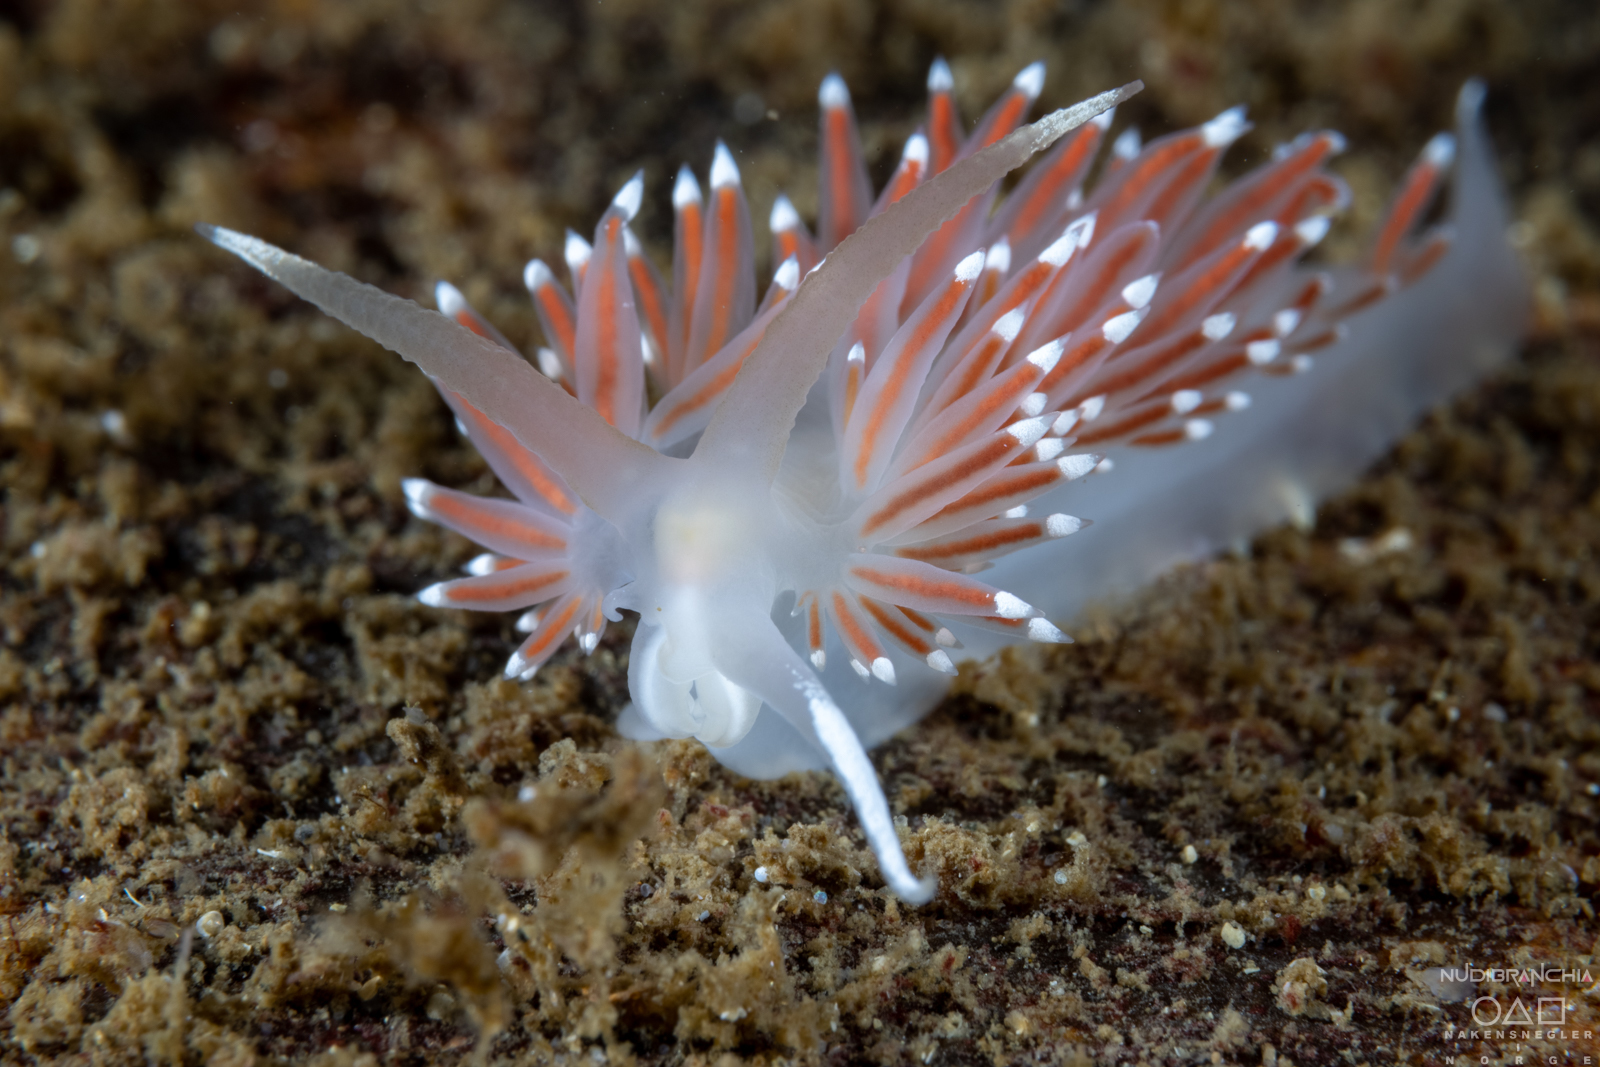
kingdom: Animalia
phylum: Mollusca
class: Gastropoda
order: Nudibranchia
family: Coryphellidae
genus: Coryphella
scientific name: Coryphella browni
